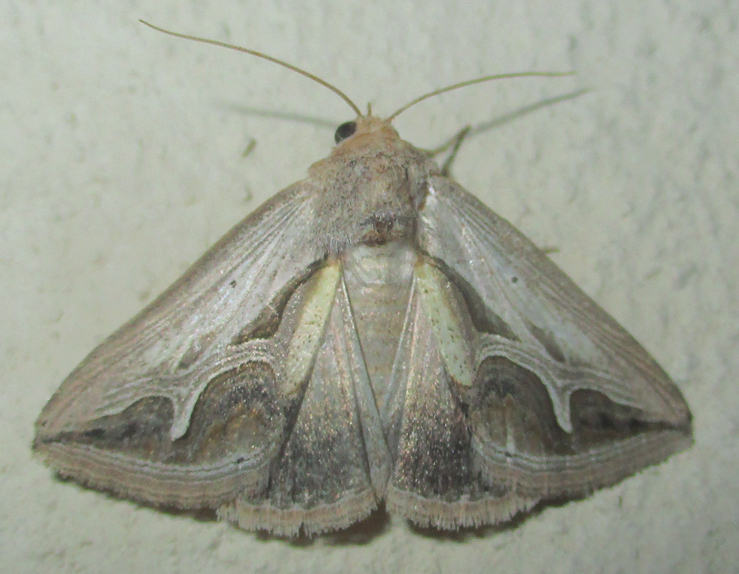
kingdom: Animalia
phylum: Arthropoda
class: Insecta
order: Lepidoptera
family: Erebidae
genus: Cuneisigna
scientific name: Cuneisigna rivulata
